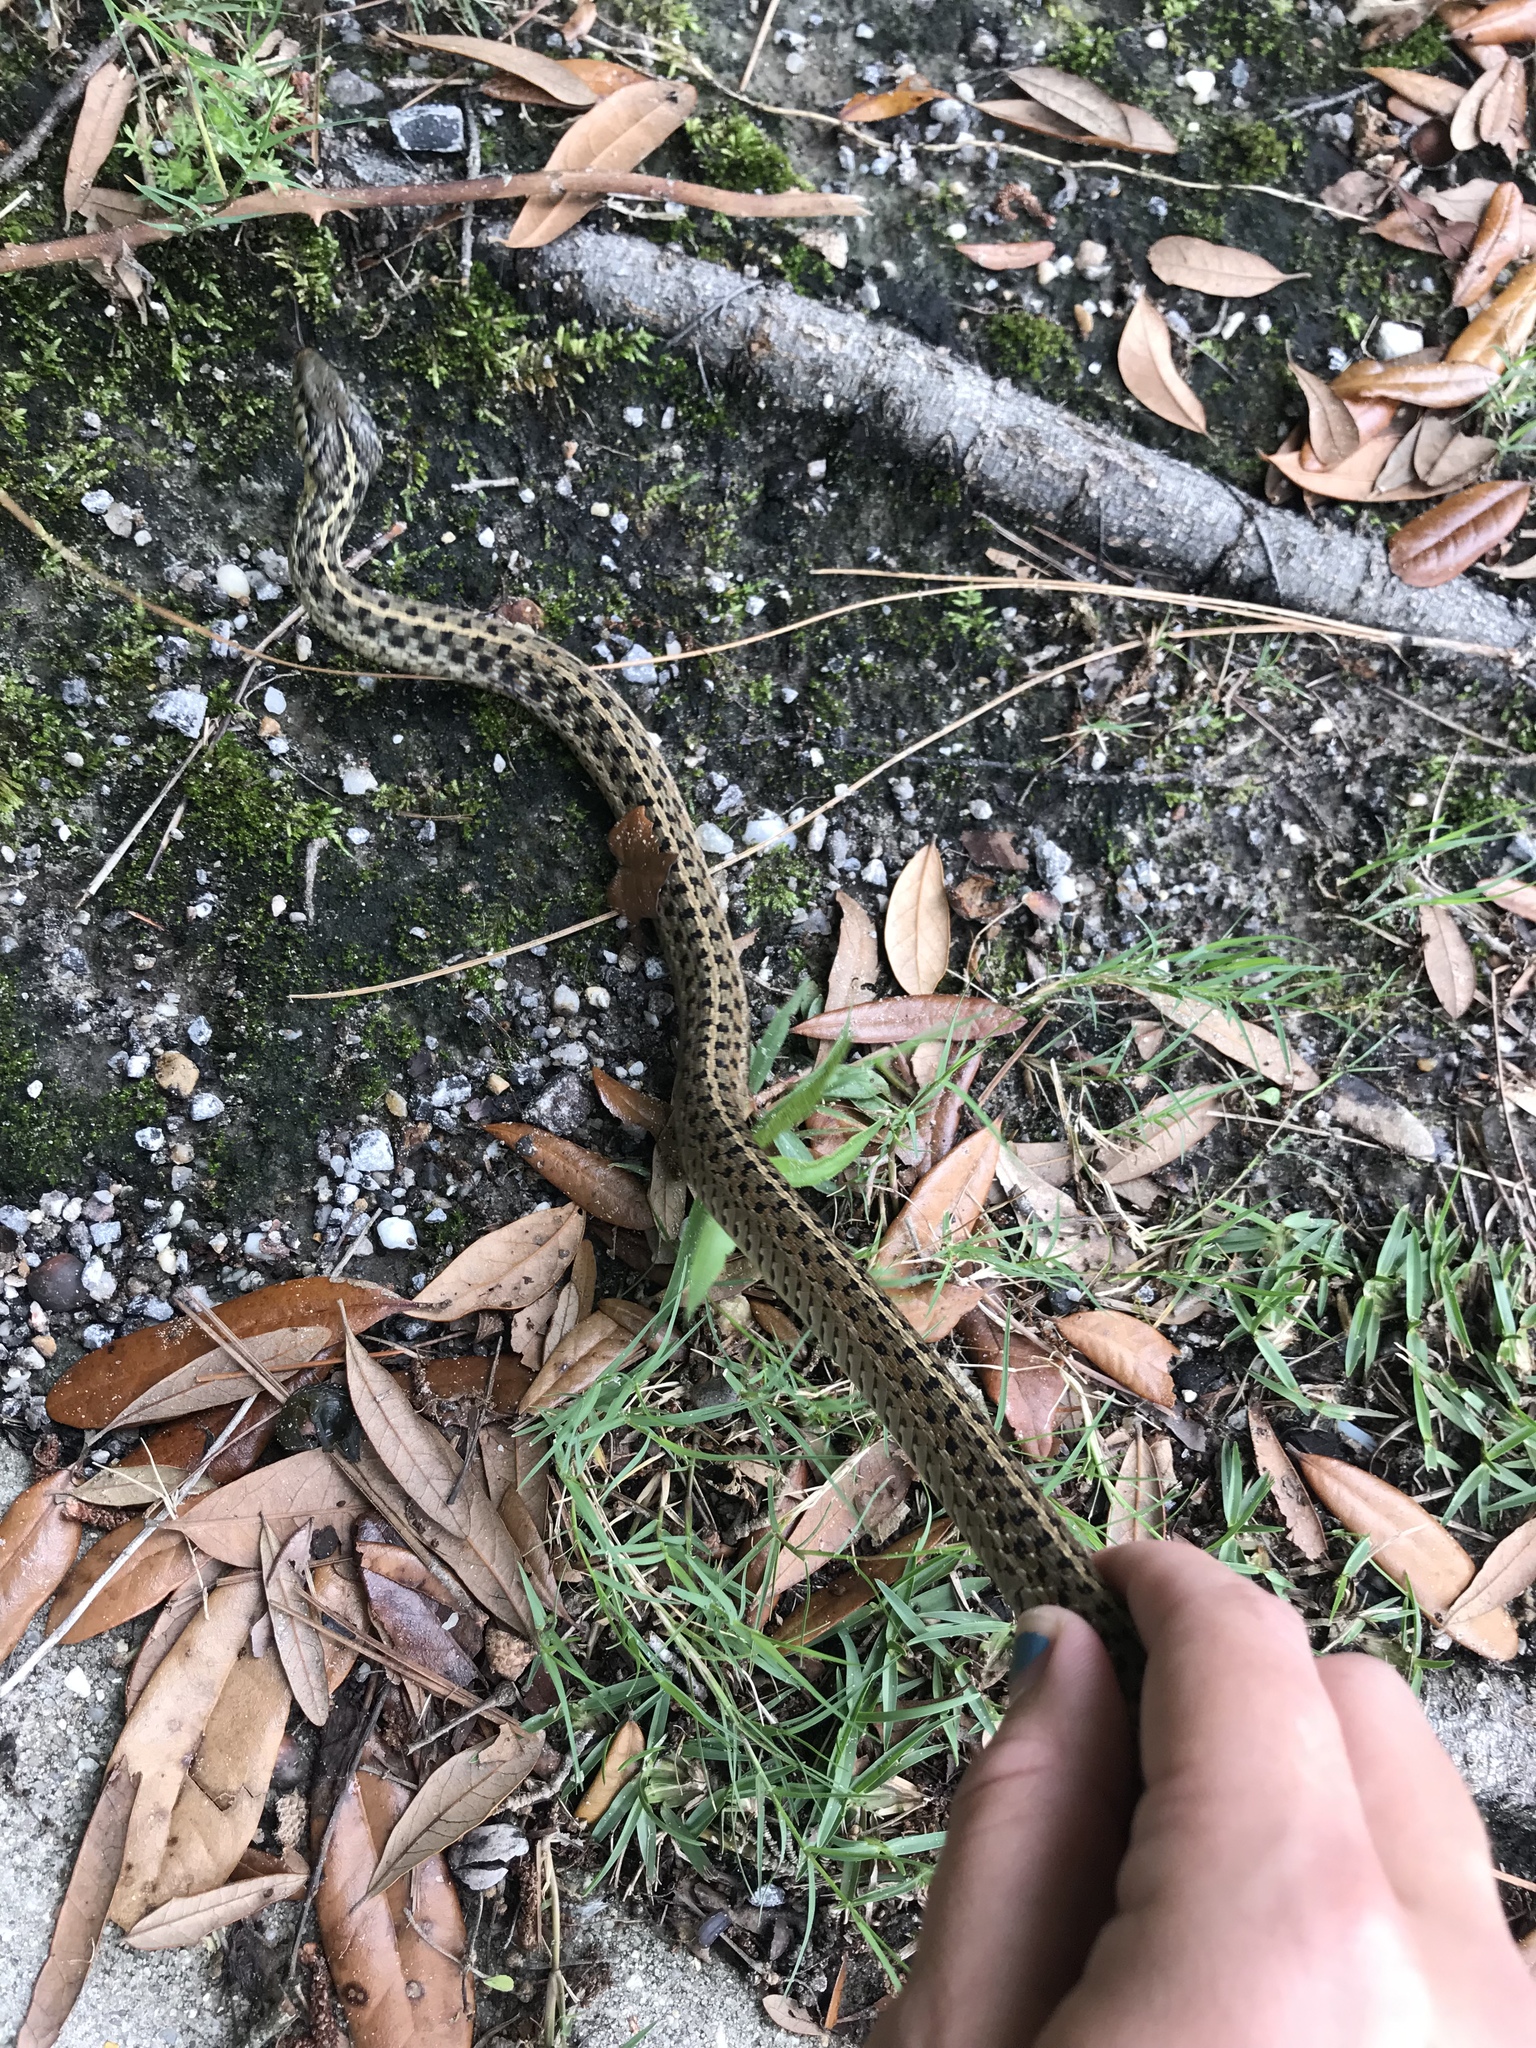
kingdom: Animalia
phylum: Chordata
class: Squamata
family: Colubridae
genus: Thamnophis
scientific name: Thamnophis sirtalis
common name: Common garter snake
